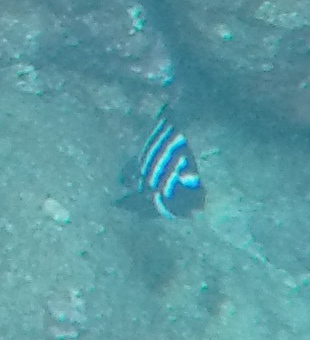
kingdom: Animalia
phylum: Chordata
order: Perciformes
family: Pomacentridae
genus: Abudefduf
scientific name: Abudefduf sordidus
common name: Blackspot sergeant
